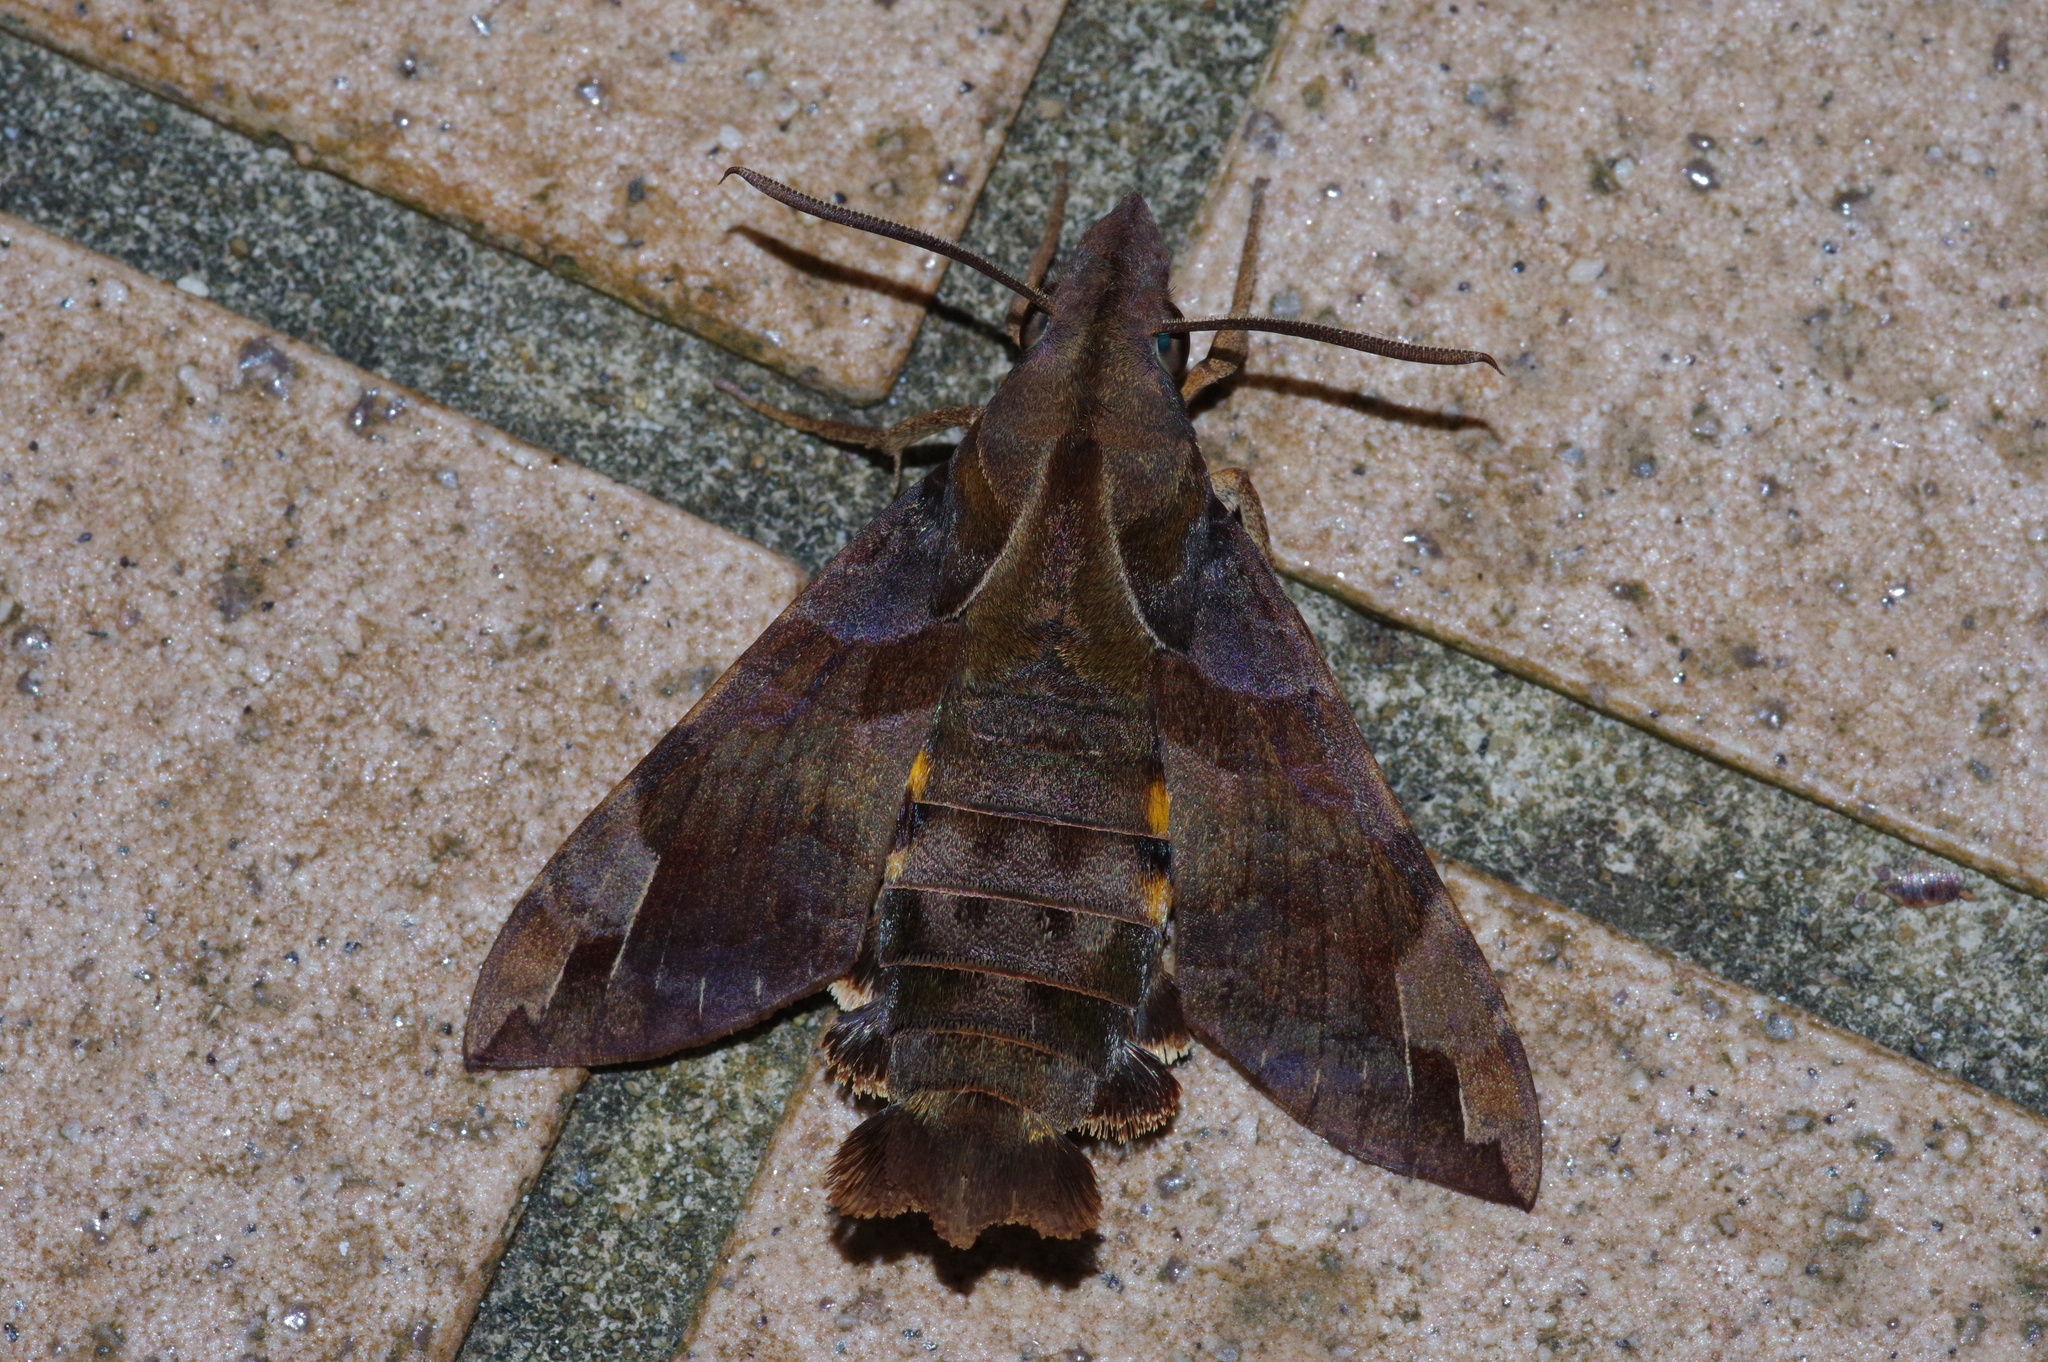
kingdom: Animalia
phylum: Arthropoda
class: Insecta
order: Lepidoptera
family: Sphingidae
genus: Macroglossum
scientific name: Macroglossum saga
